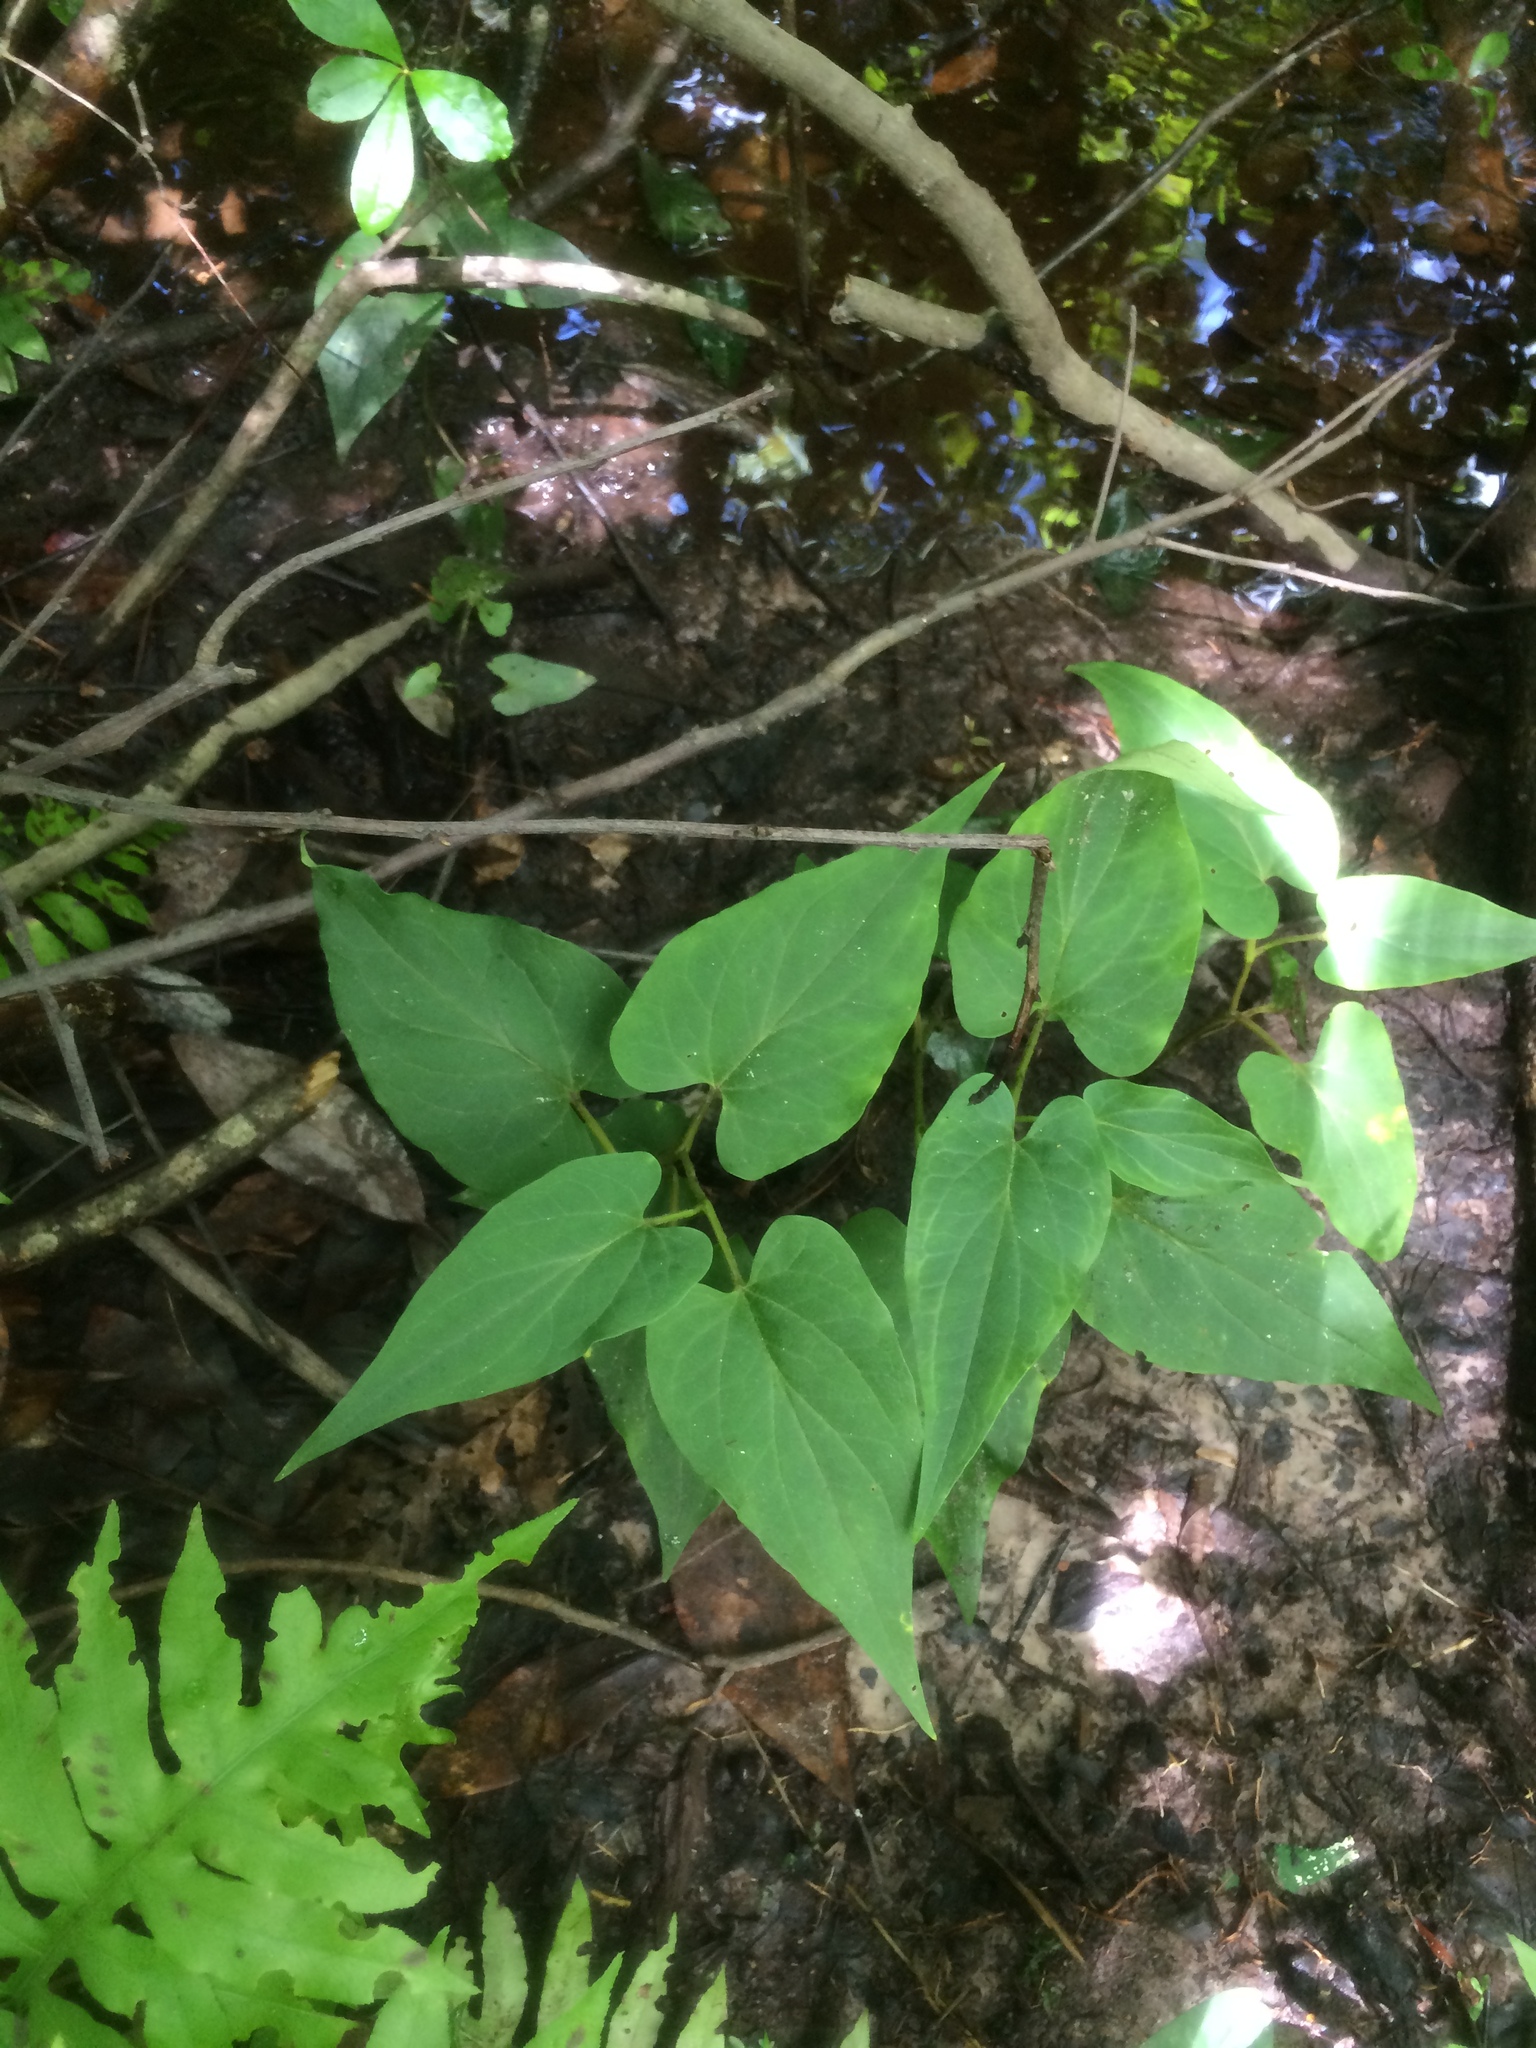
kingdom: Plantae
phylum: Tracheophyta
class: Magnoliopsida
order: Piperales
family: Saururaceae
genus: Saururus
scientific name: Saururus cernuus
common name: Lizard's-tail
